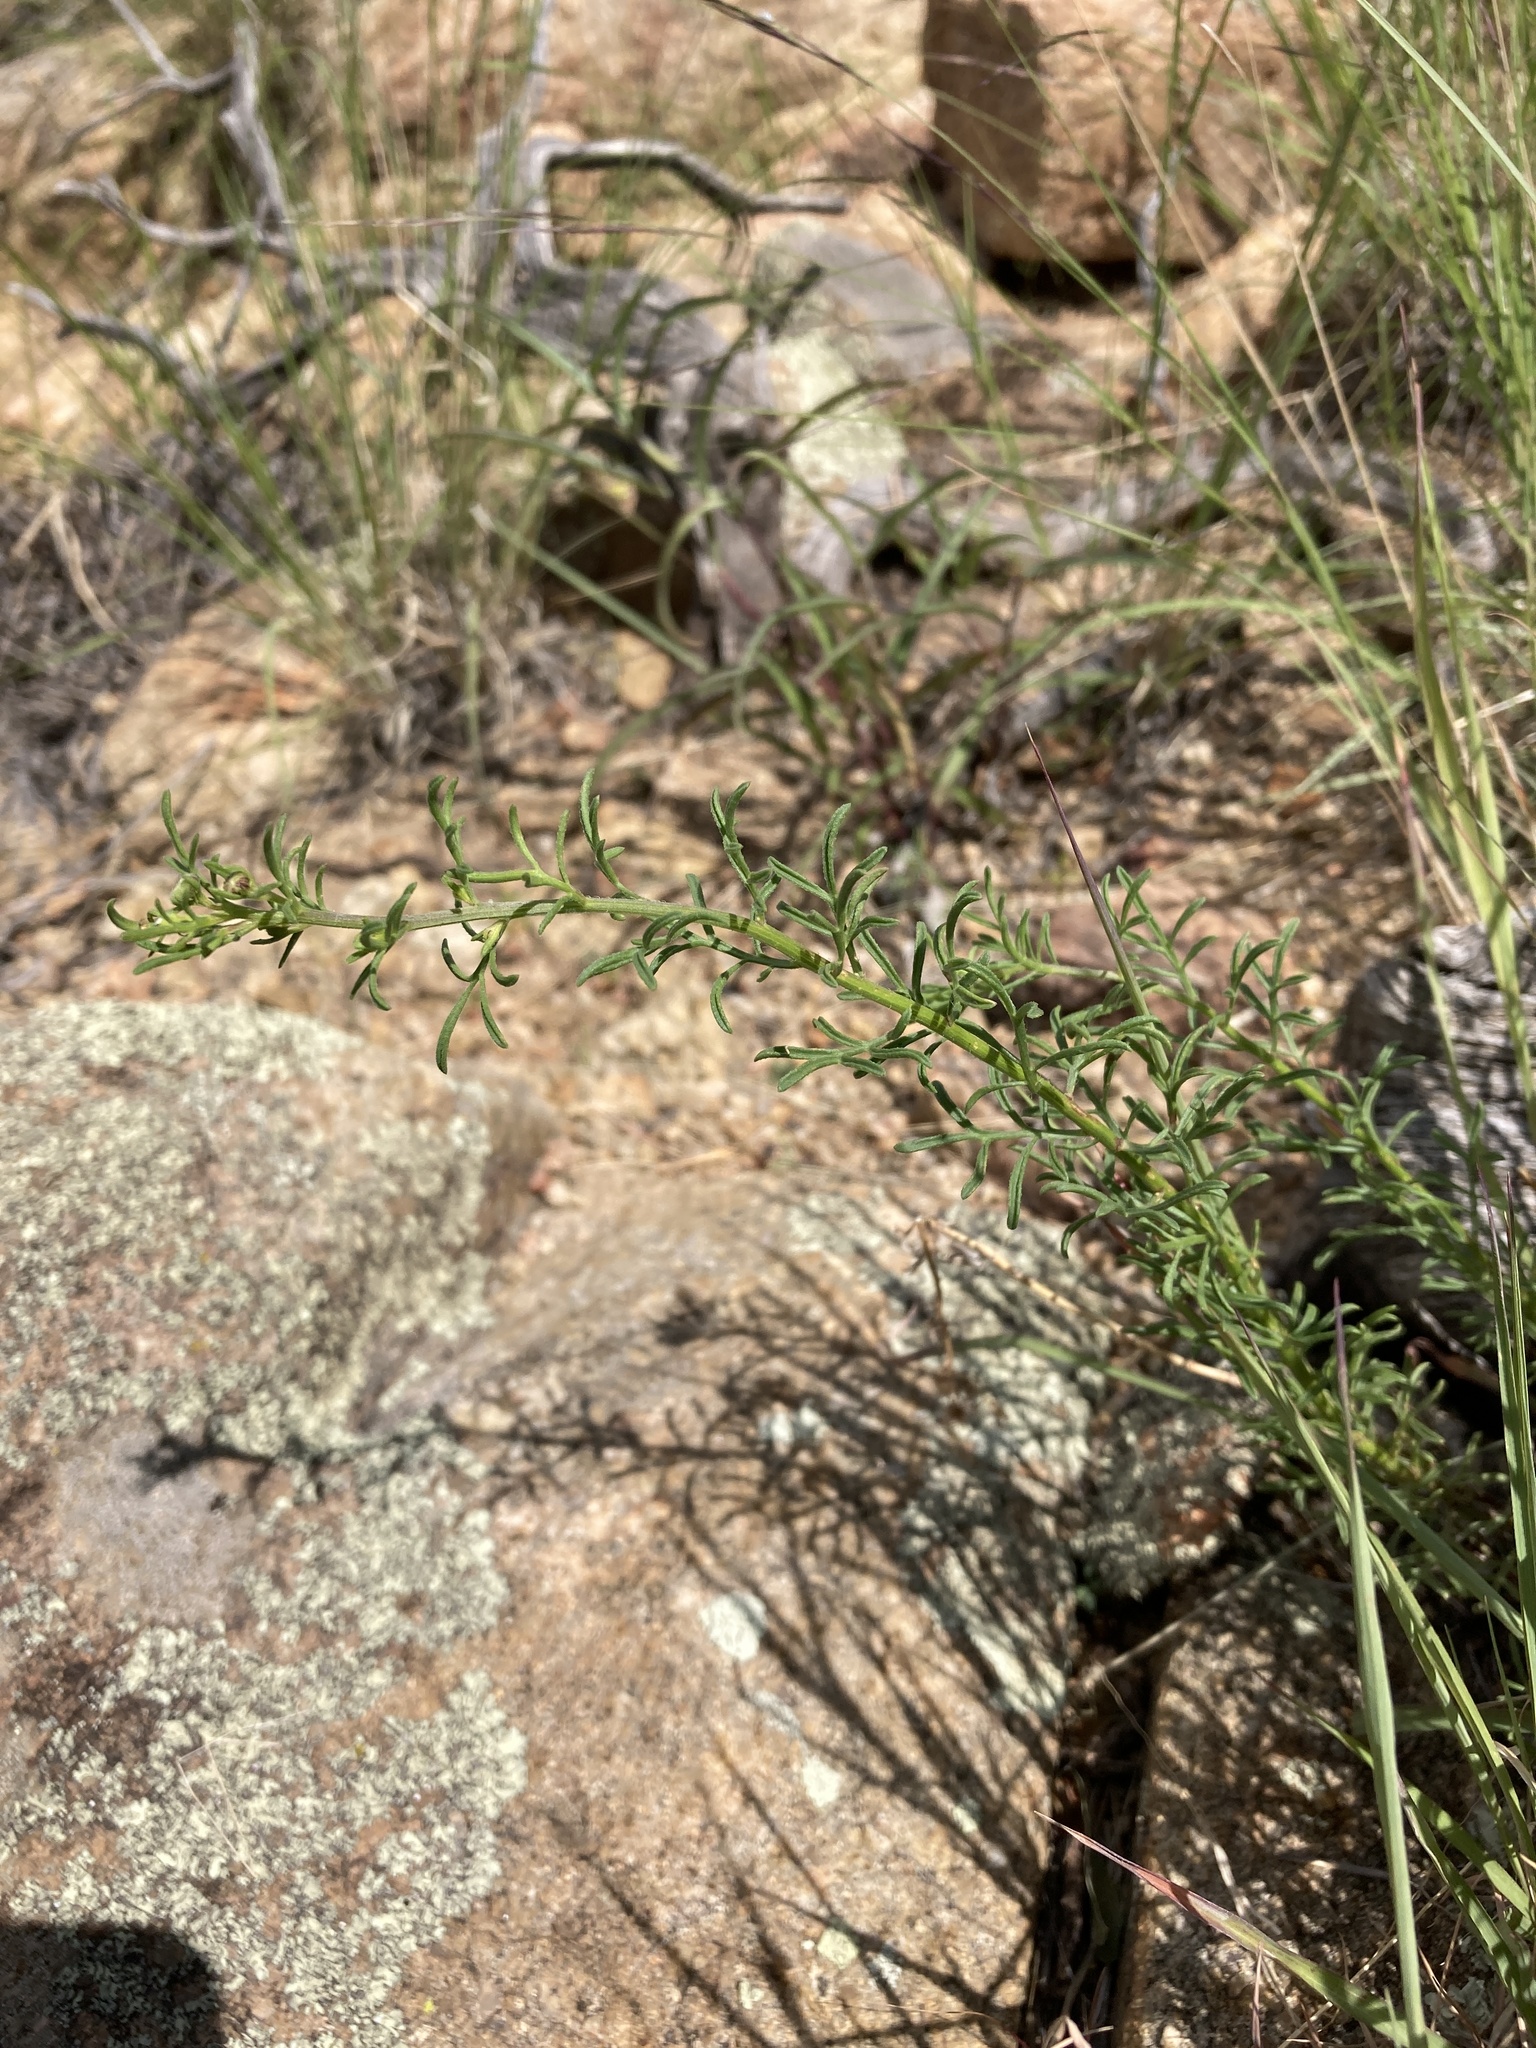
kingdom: Plantae
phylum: Tracheophyta
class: Magnoliopsida
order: Asterales
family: Asteraceae
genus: Erigeron
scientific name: Erigeron neomexicanus
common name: New mexico fleabane
